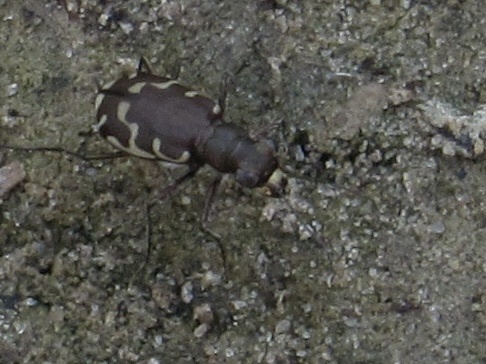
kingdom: Animalia
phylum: Arthropoda
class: Insecta
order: Coleoptera
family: Carabidae
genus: Cicindela
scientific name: Cicindela repanda
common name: Bronzed tiger beetle
